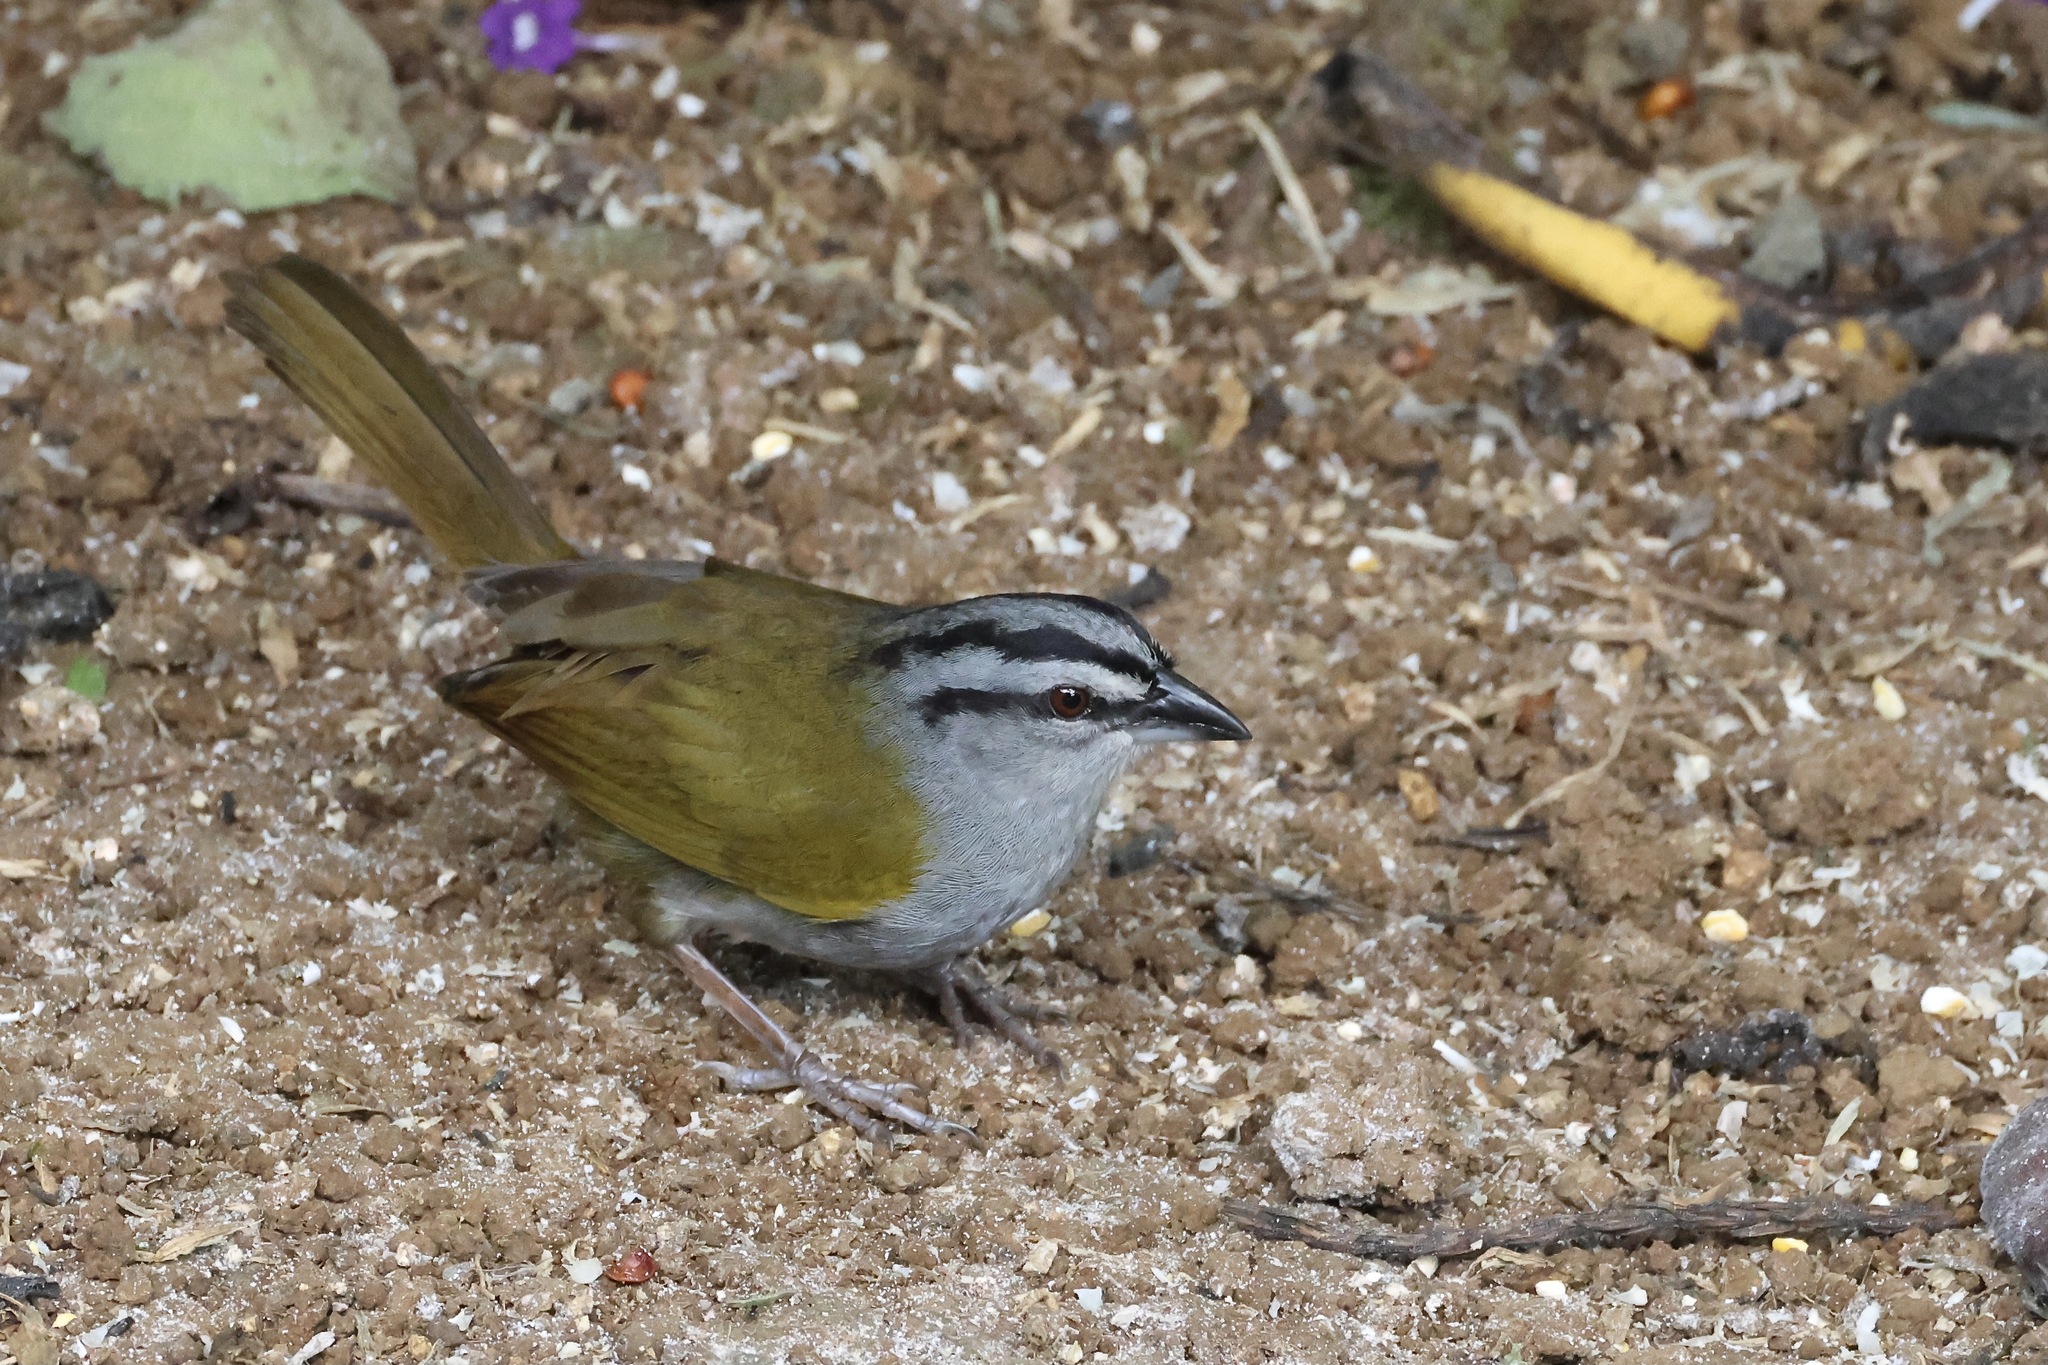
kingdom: Animalia
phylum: Chordata
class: Aves
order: Passeriformes
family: Passerellidae
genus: Arremonops
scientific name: Arremonops conirostris
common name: Black-striped sparrow
